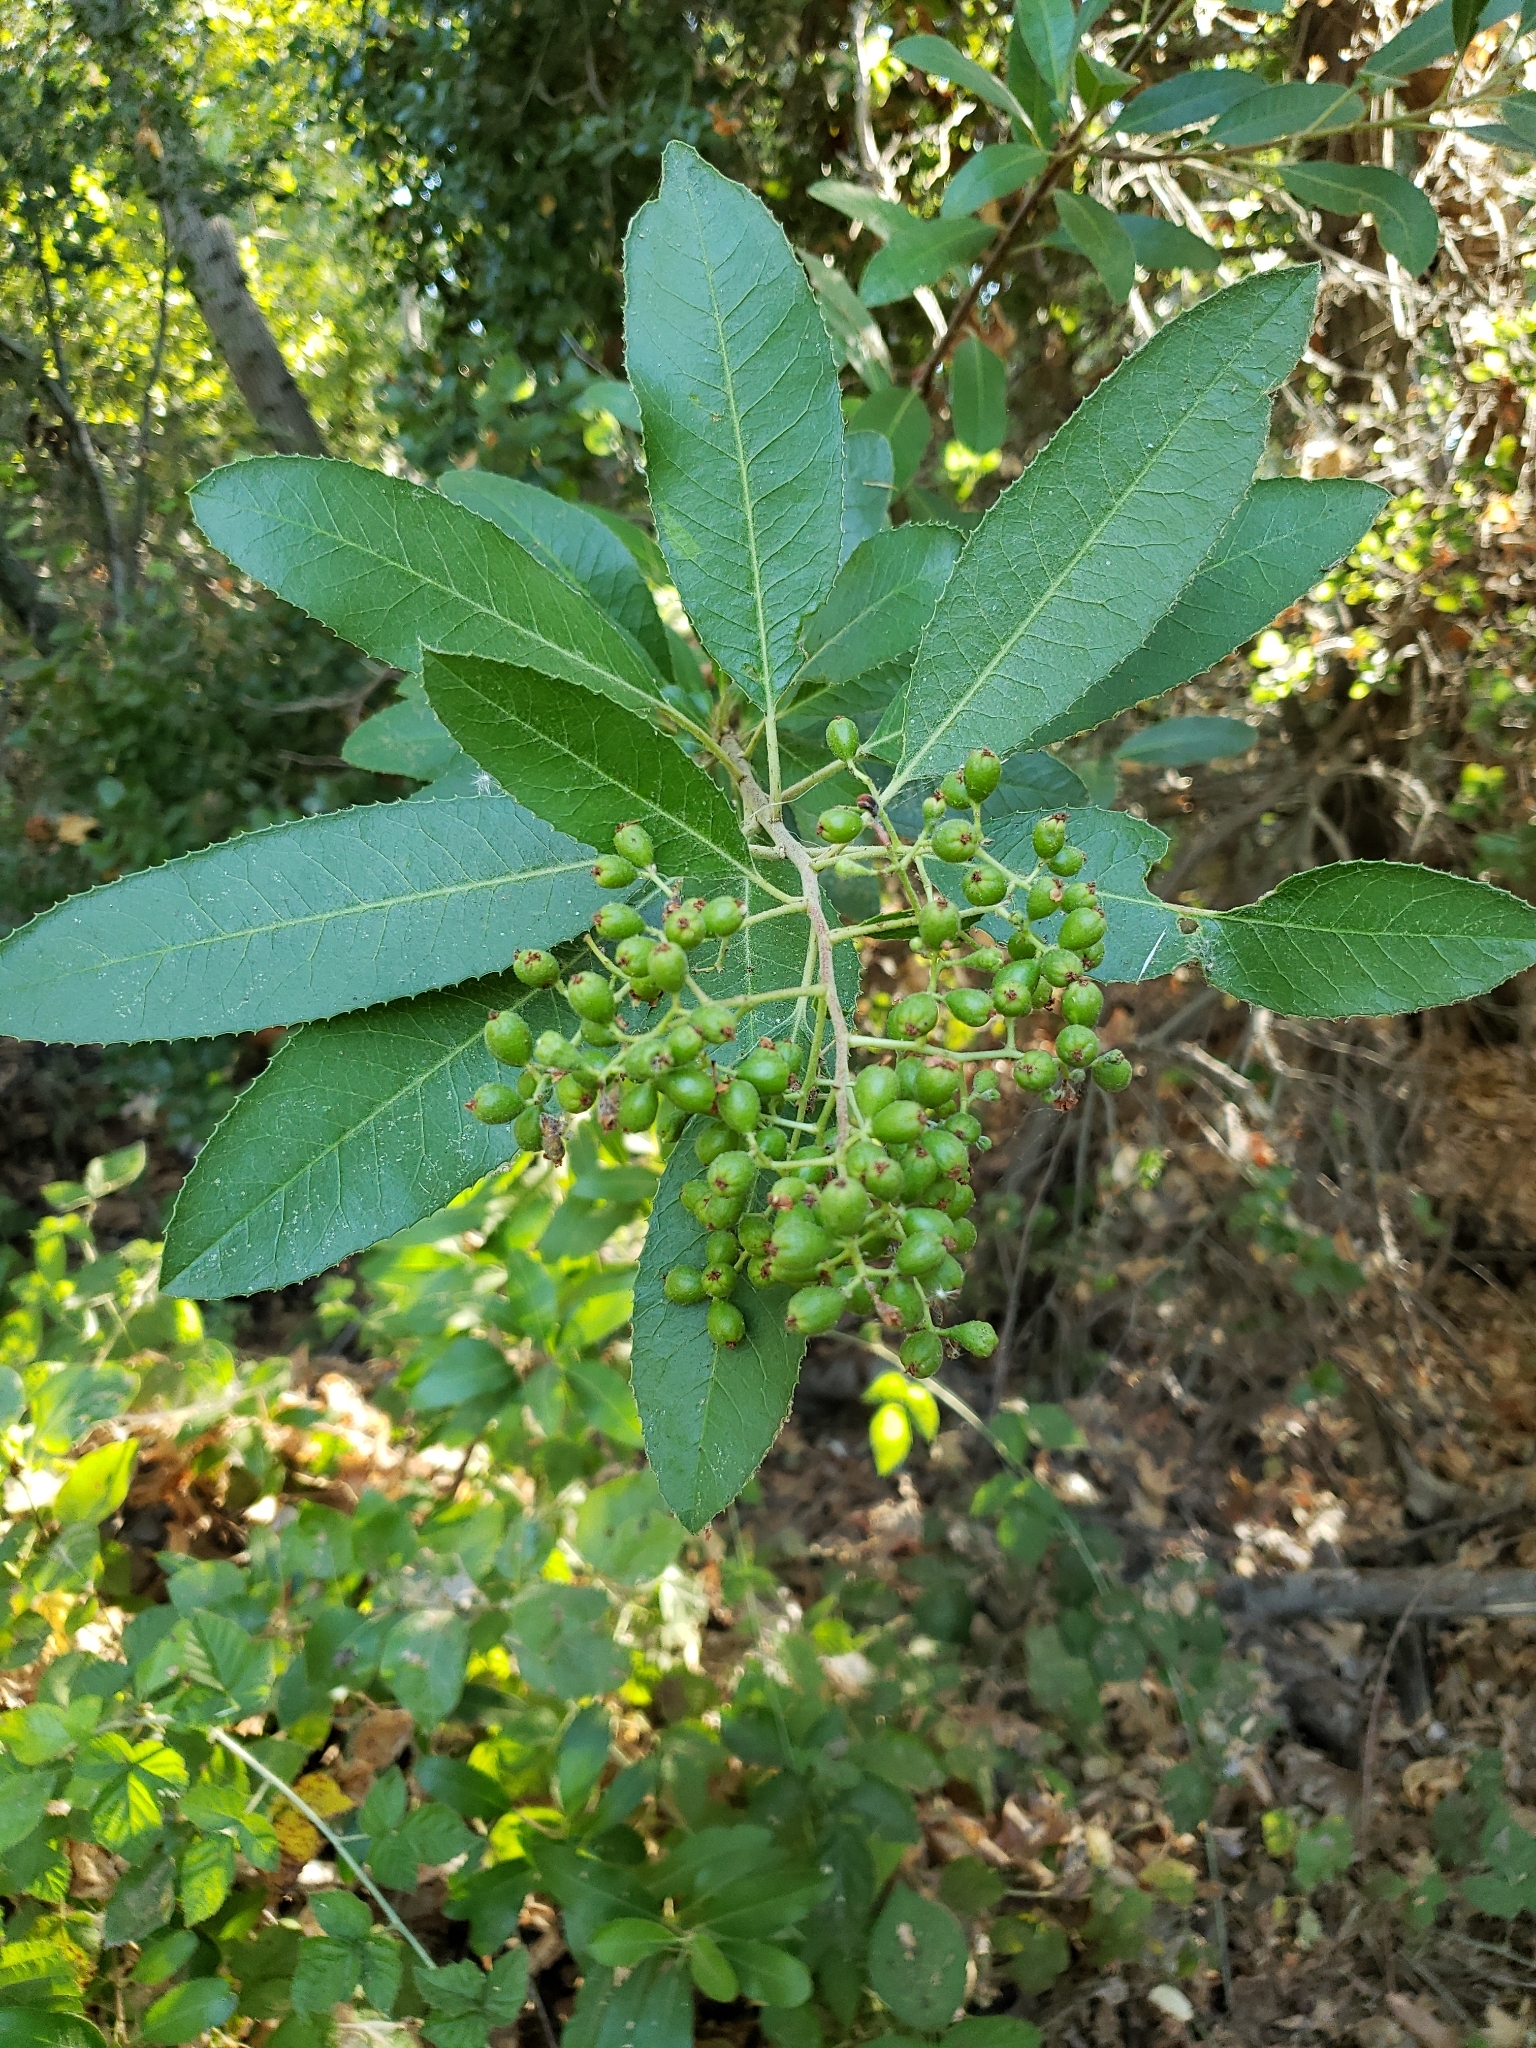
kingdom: Plantae
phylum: Tracheophyta
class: Magnoliopsida
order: Rosales
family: Rosaceae
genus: Heteromeles
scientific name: Heteromeles arbutifolia
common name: California-holly
